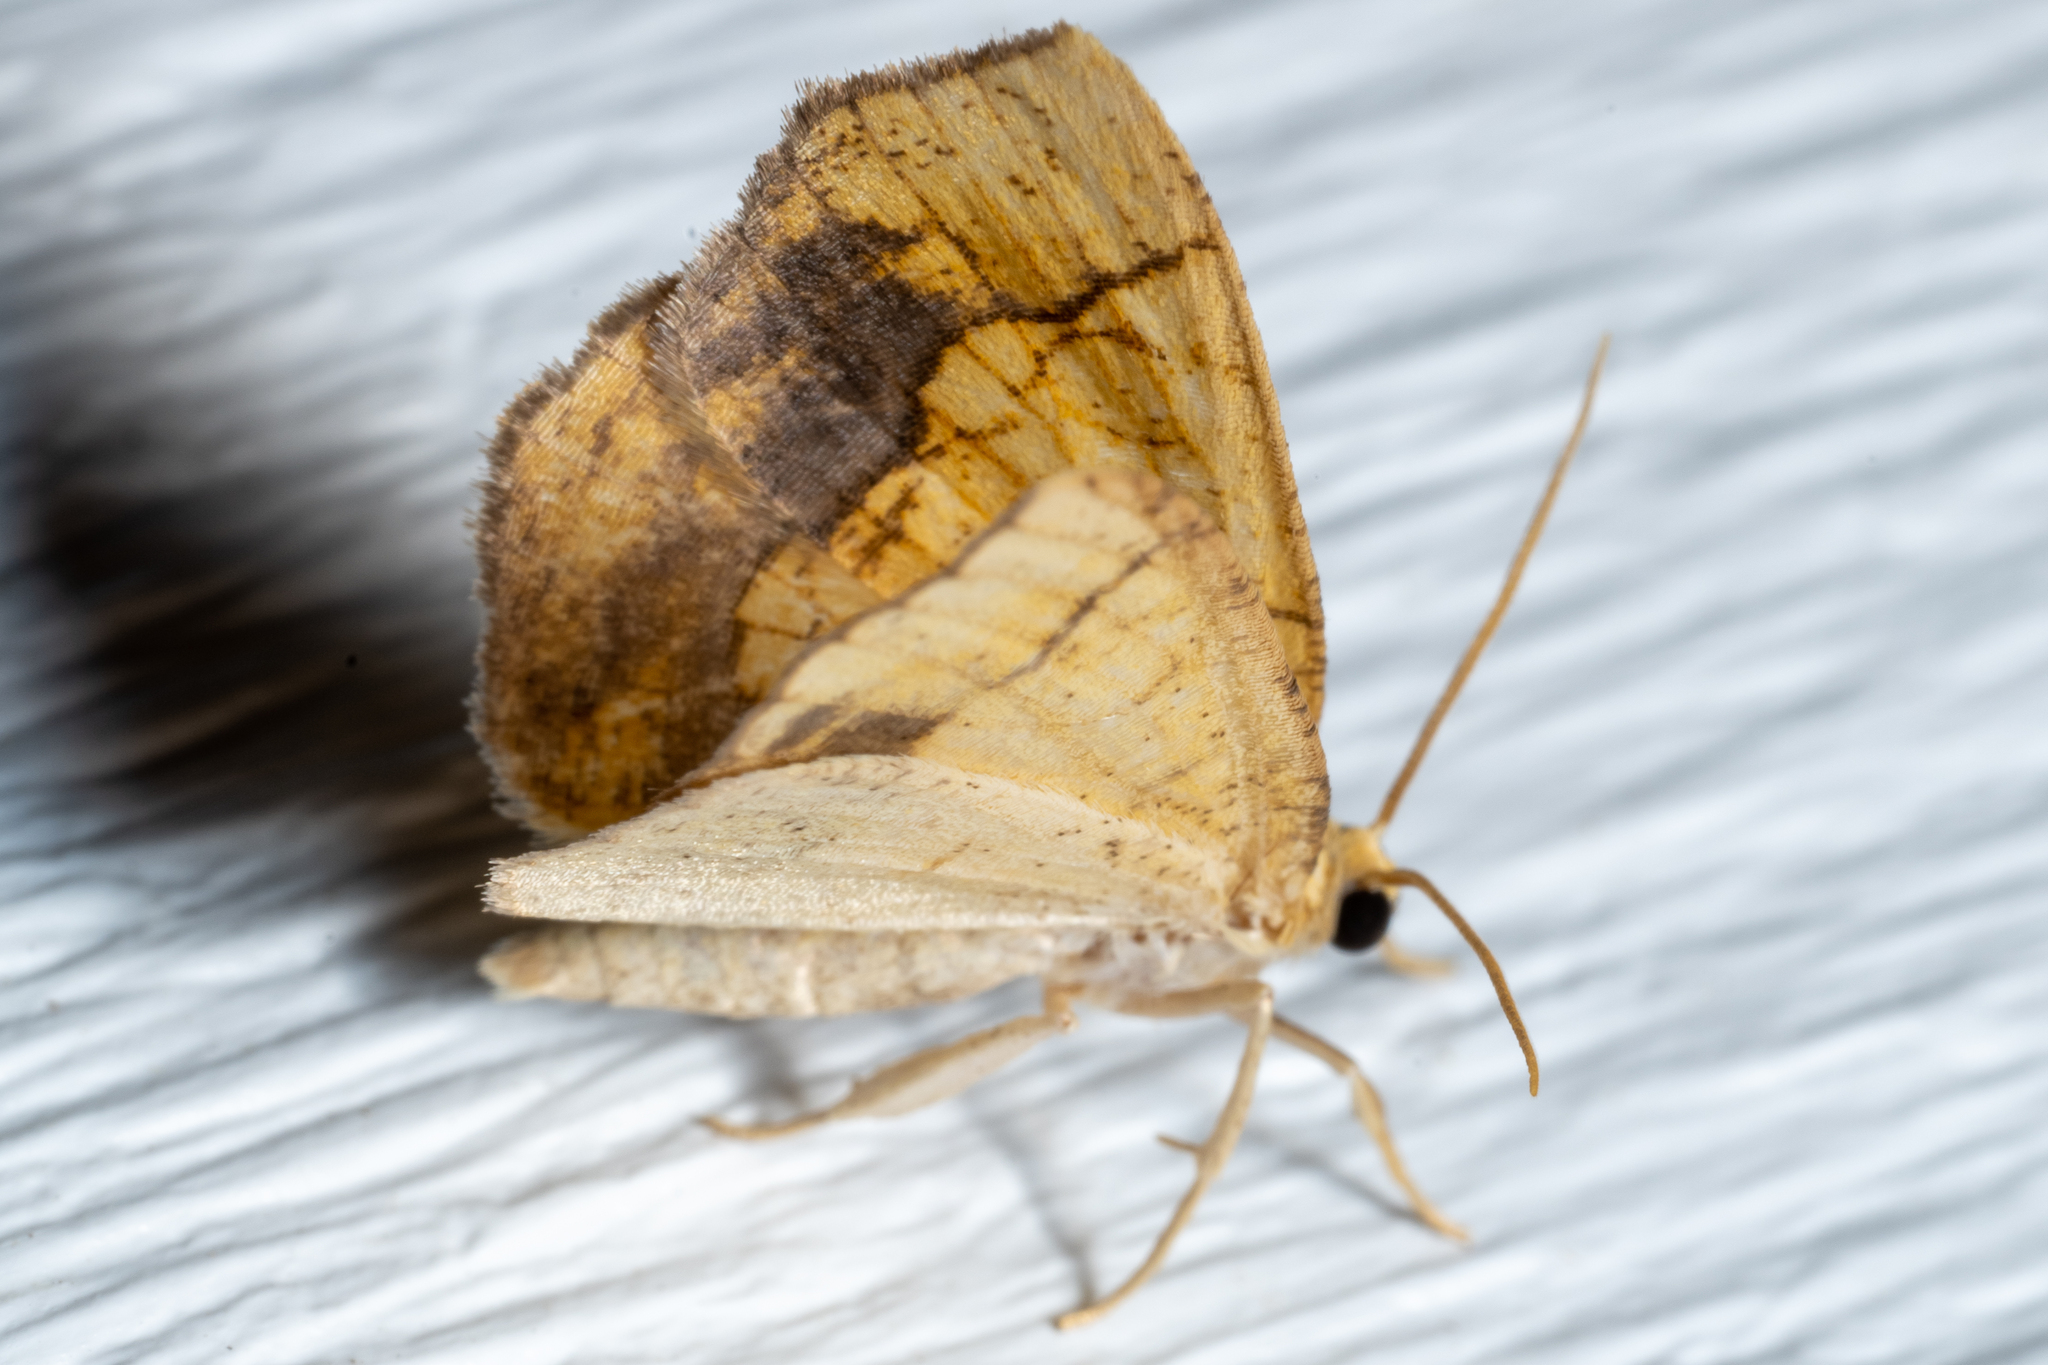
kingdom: Animalia
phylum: Arthropoda
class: Insecta
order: Lepidoptera
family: Geometridae
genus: Nematocampa
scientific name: Nematocampa resistaria
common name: Horned spanworm moth
